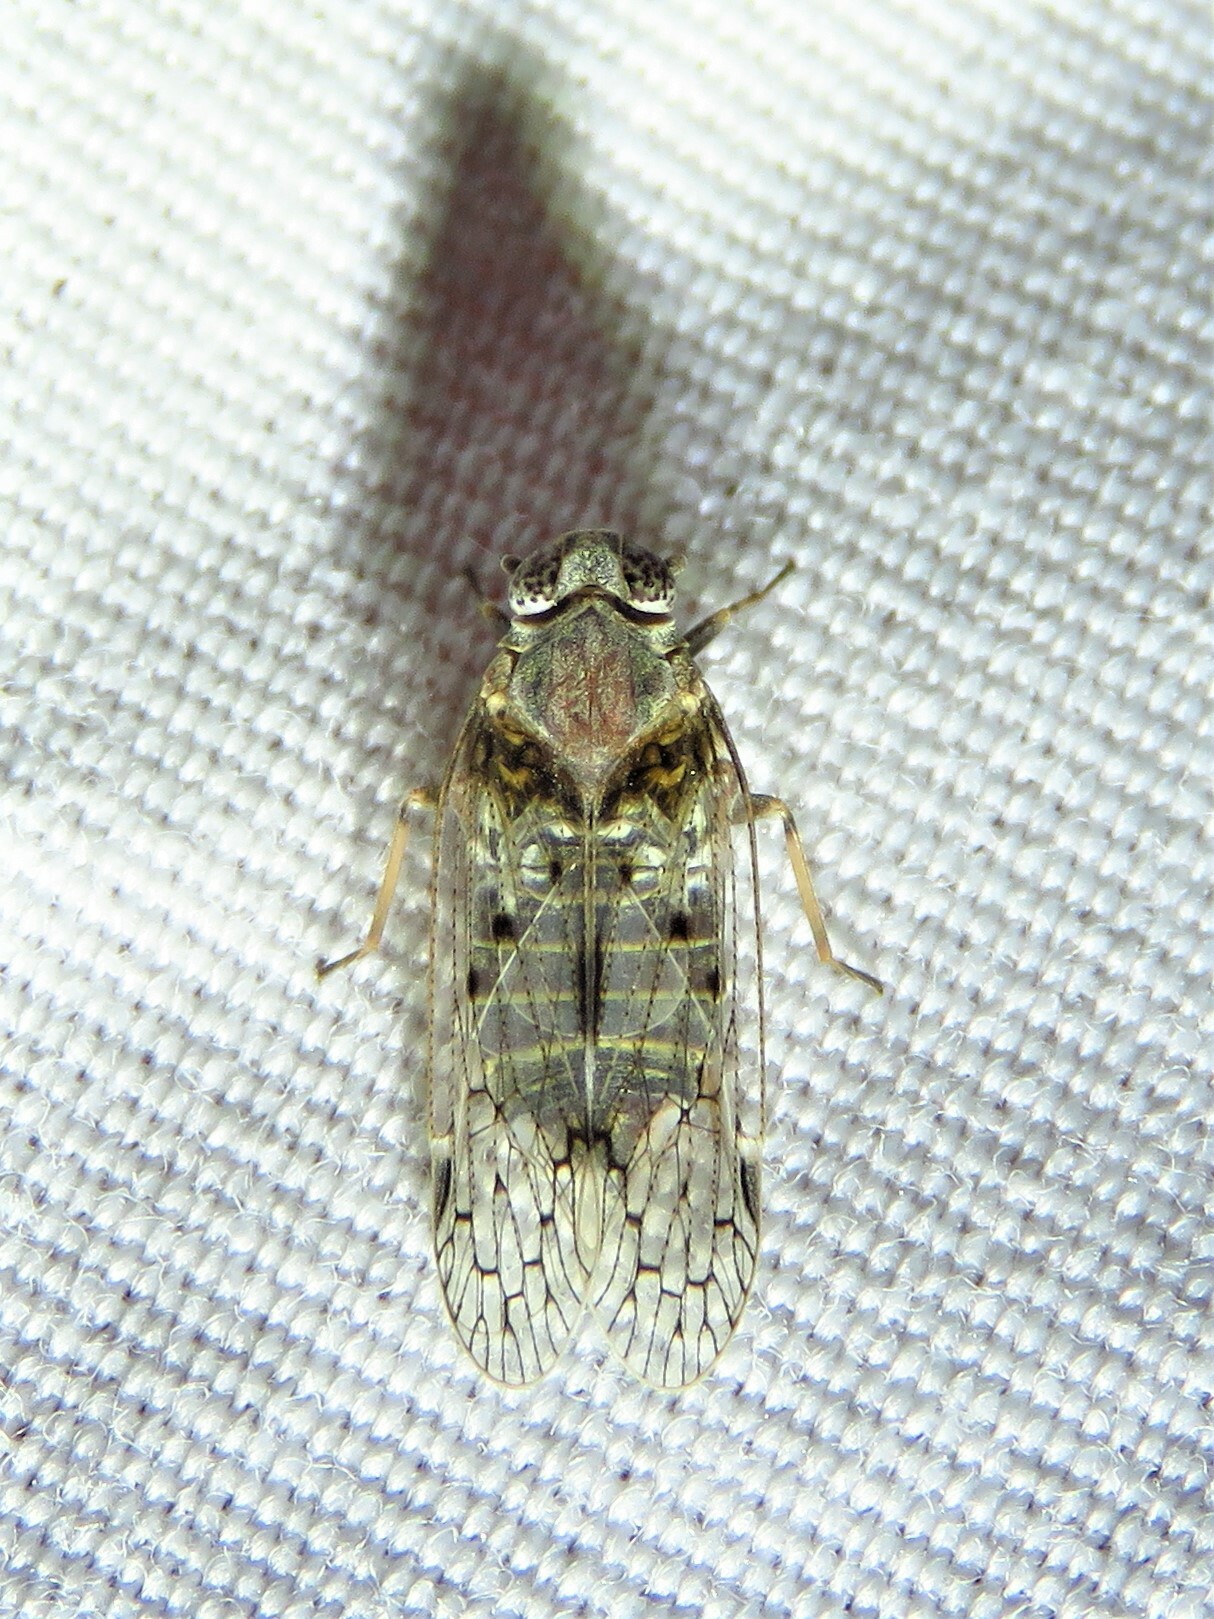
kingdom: Animalia
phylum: Arthropoda
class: Insecta
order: Hemiptera
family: Cixiidae
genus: Melanoliarus
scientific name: Melanoliarus aridus
